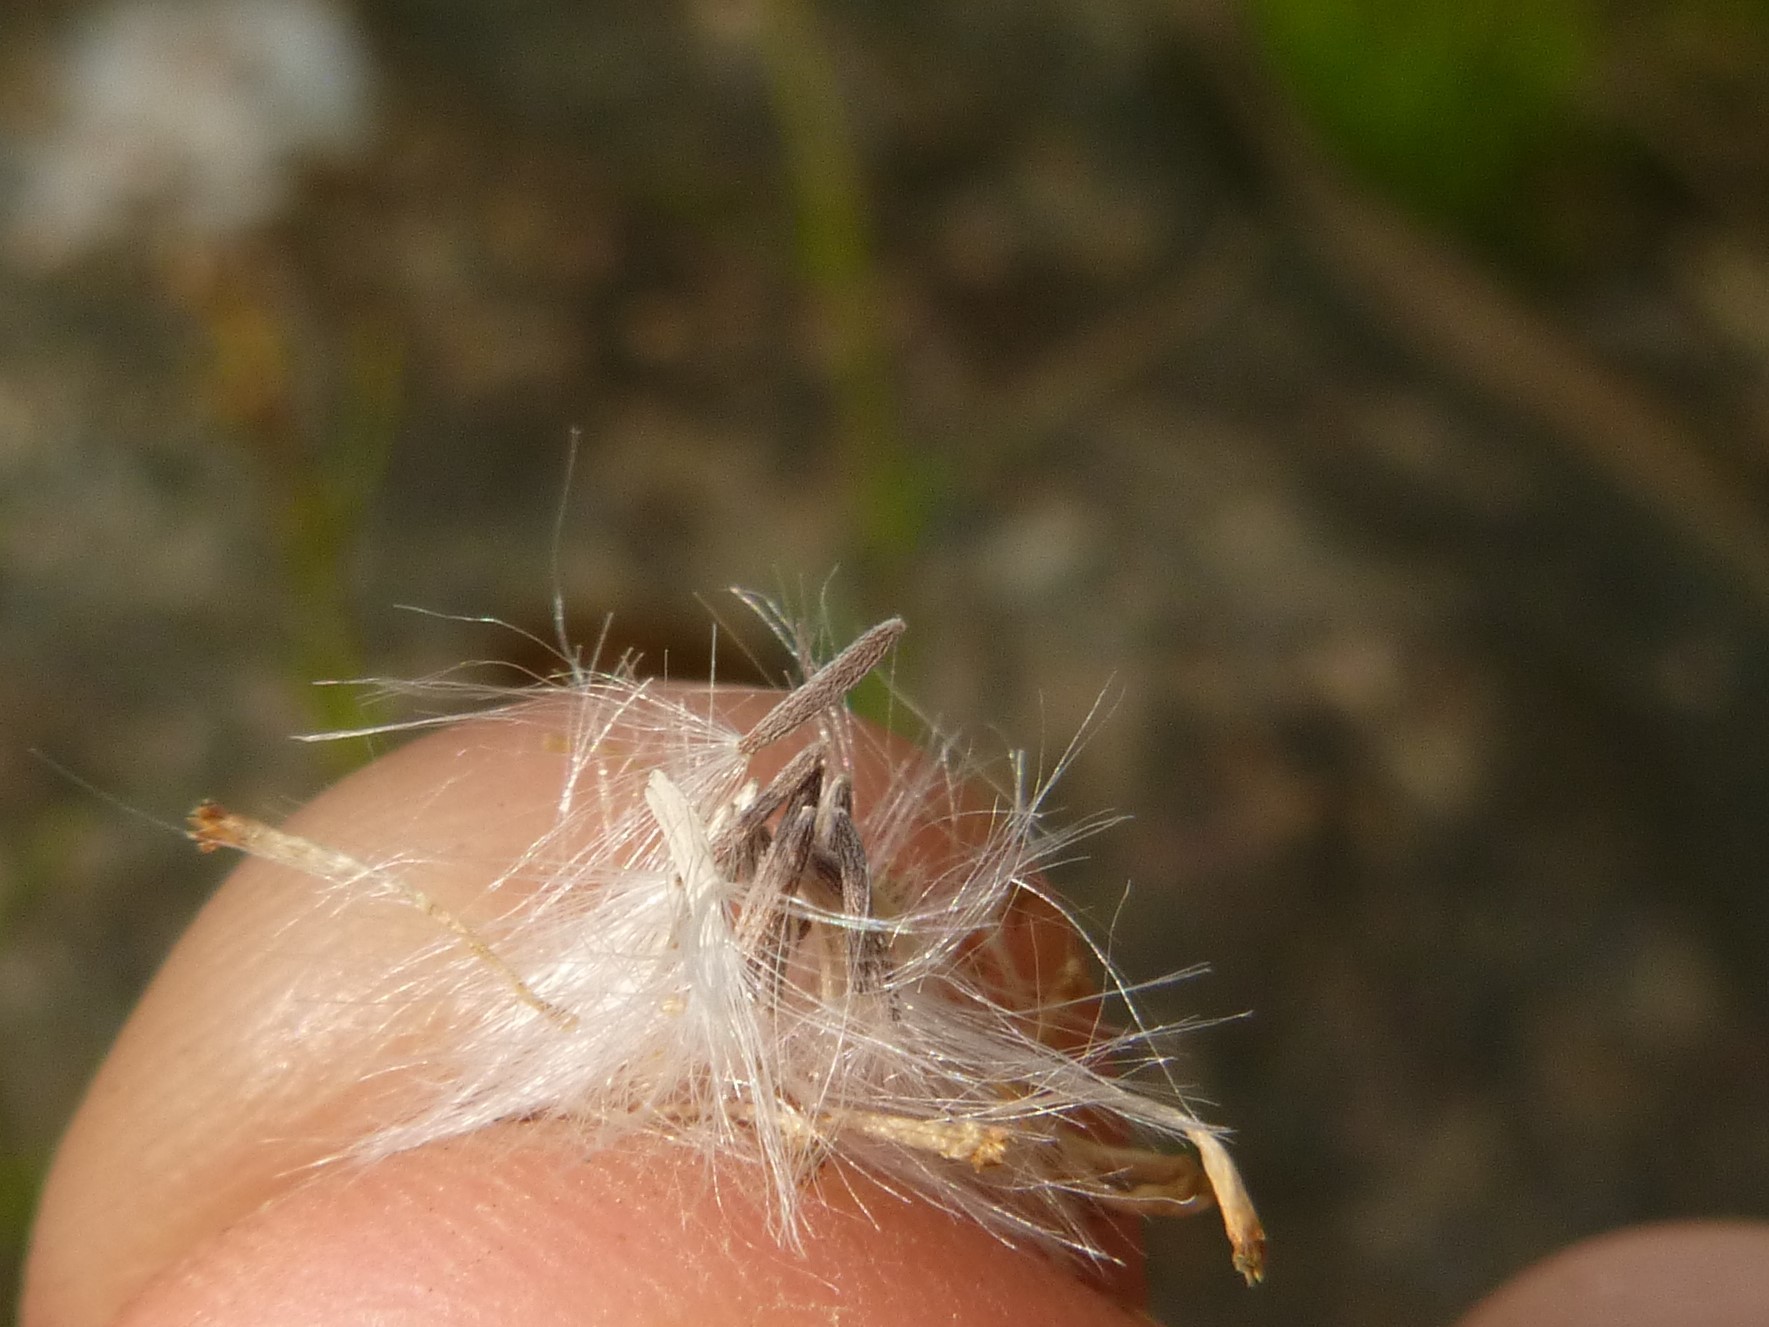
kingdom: Plantae
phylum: Tracheophyta
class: Magnoliopsida
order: Asterales
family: Asteraceae
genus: Senecio
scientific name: Senecio inaequidens
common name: Narrow-leaved ragwort
